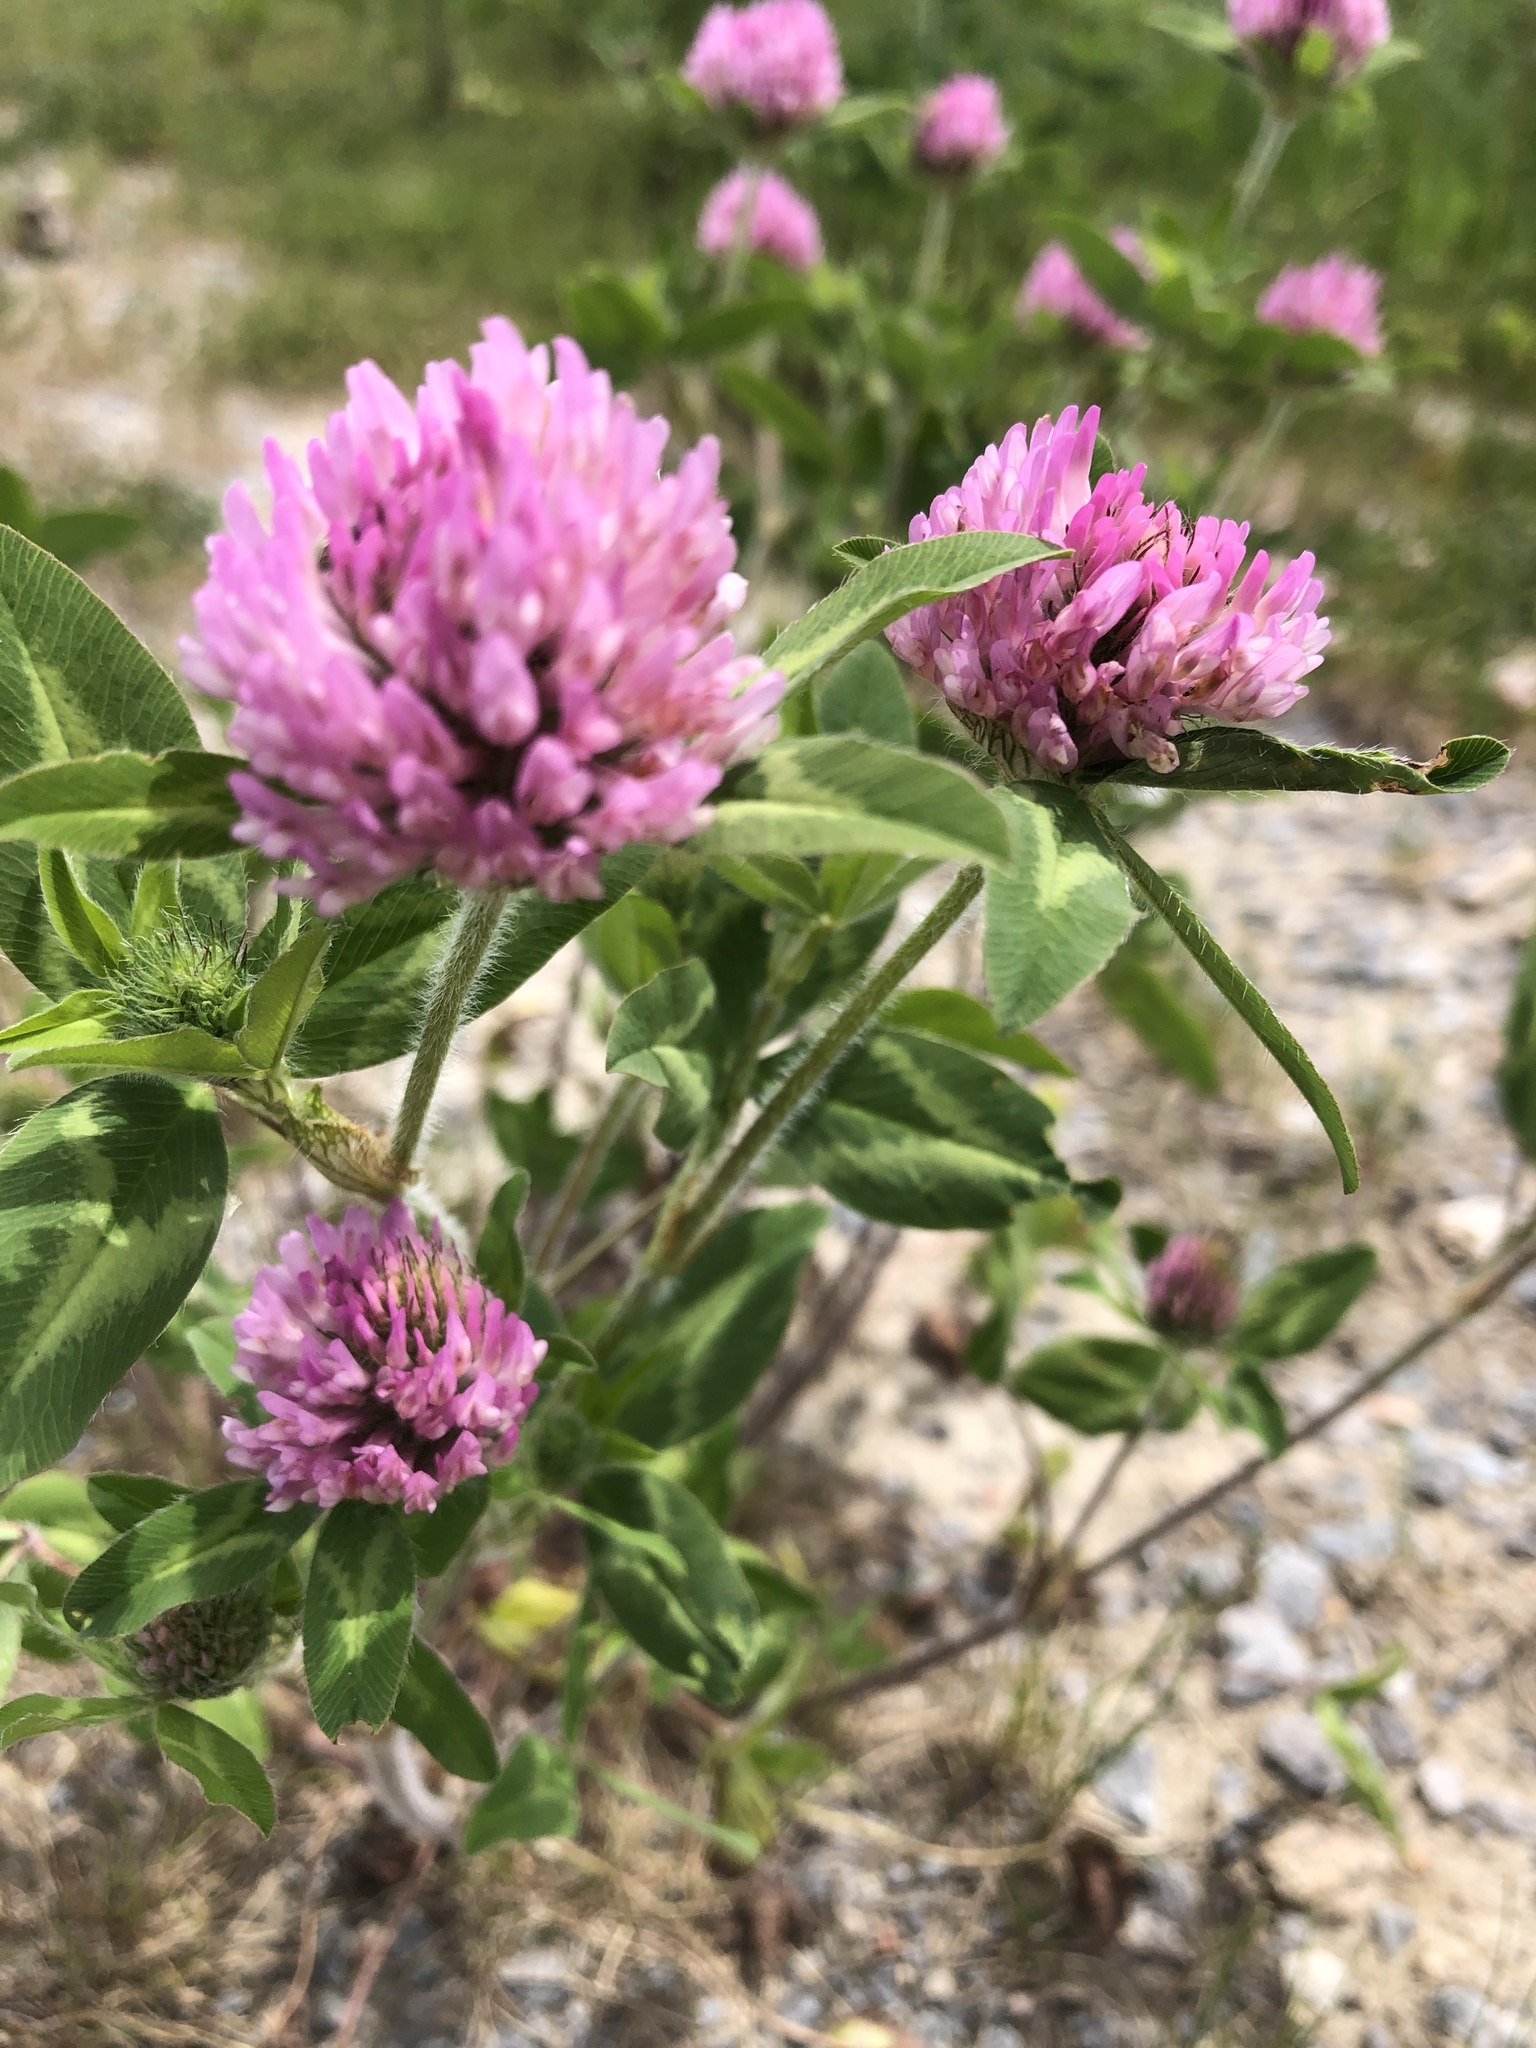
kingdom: Plantae
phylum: Tracheophyta
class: Magnoliopsida
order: Fabales
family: Fabaceae
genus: Trifolium
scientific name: Trifolium pratense
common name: Red clover
